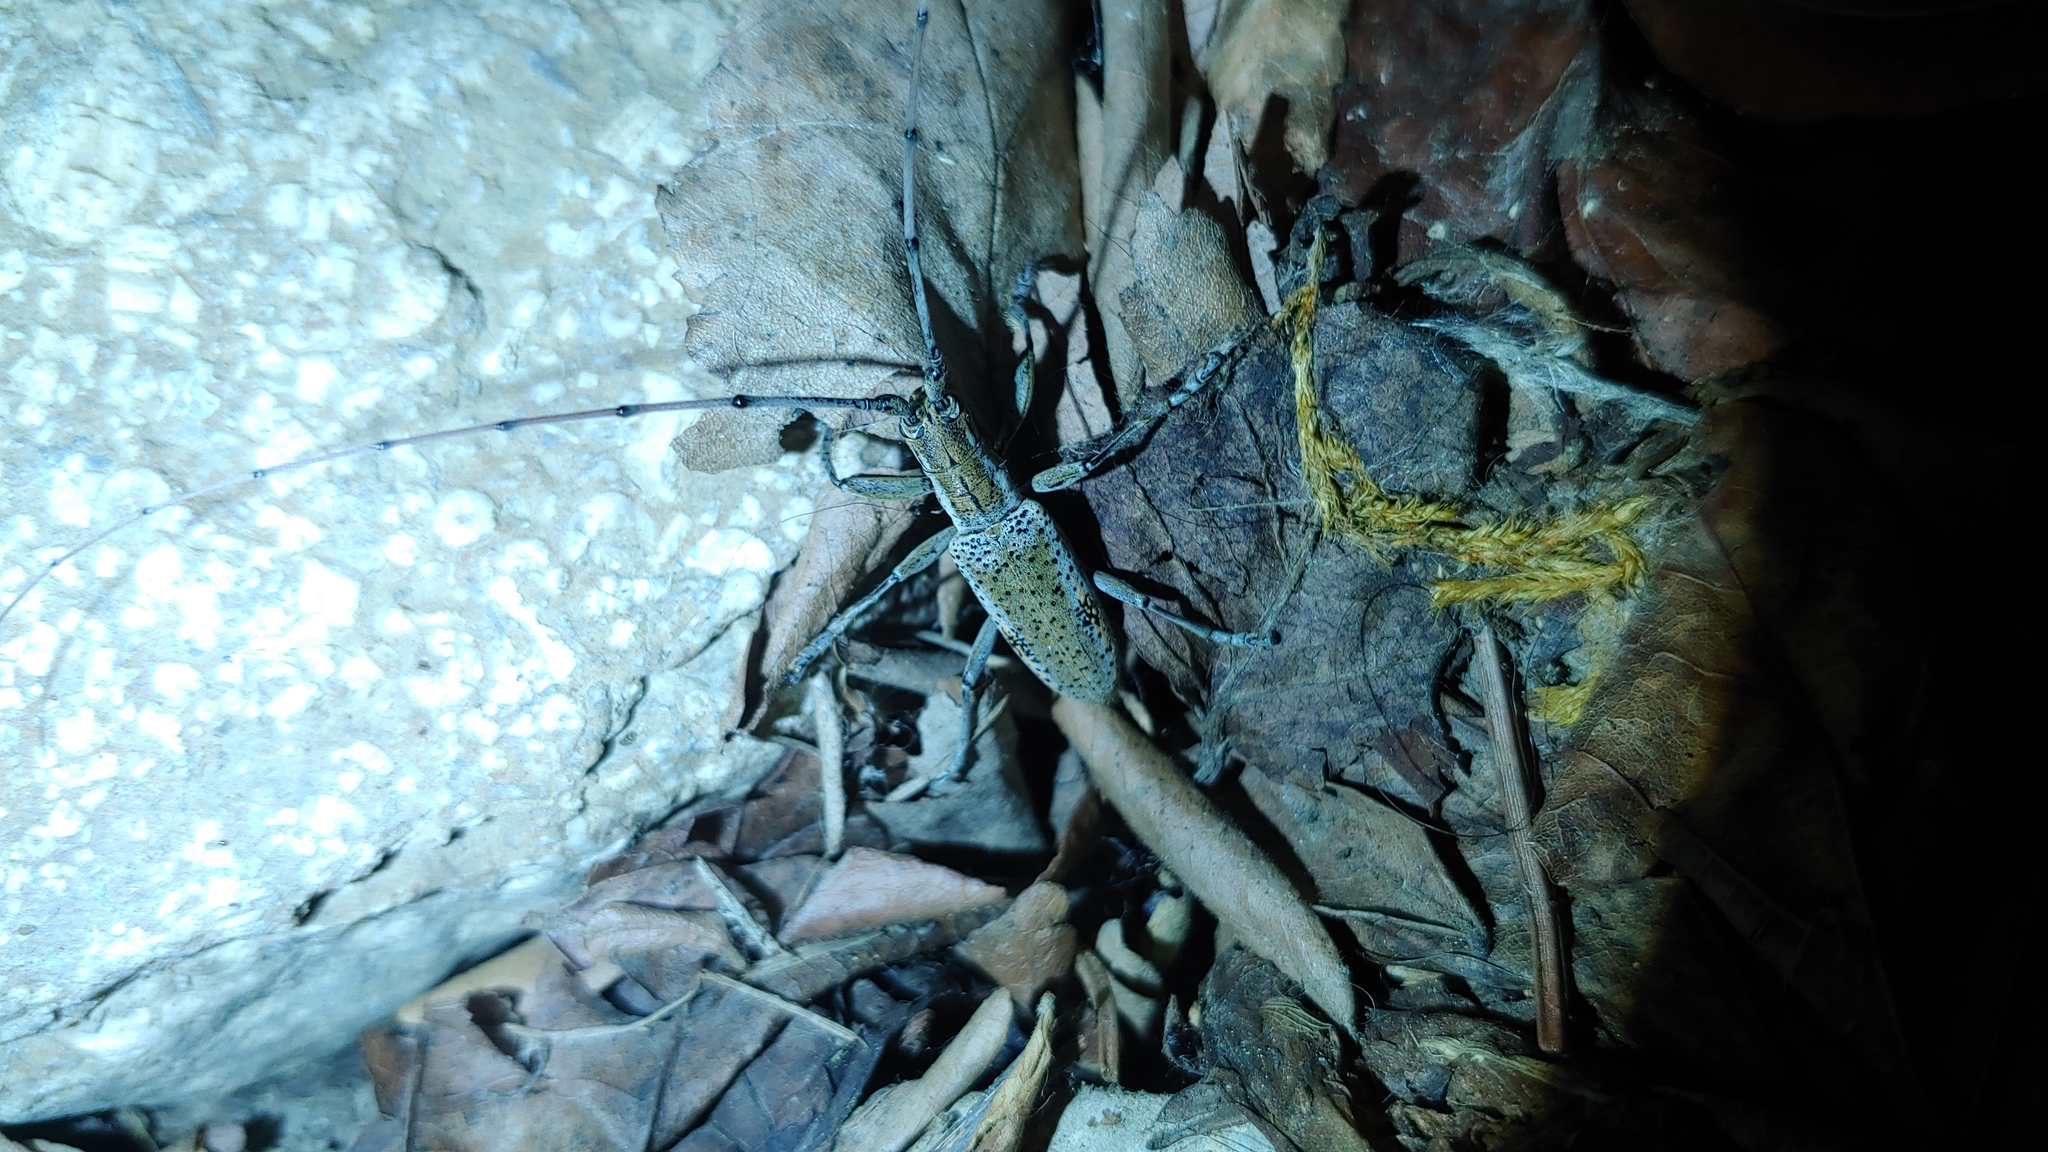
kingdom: Animalia
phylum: Arthropoda
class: Insecta
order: Coleoptera
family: Cerambycidae
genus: Dorcaschema
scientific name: Dorcaschema wildii
